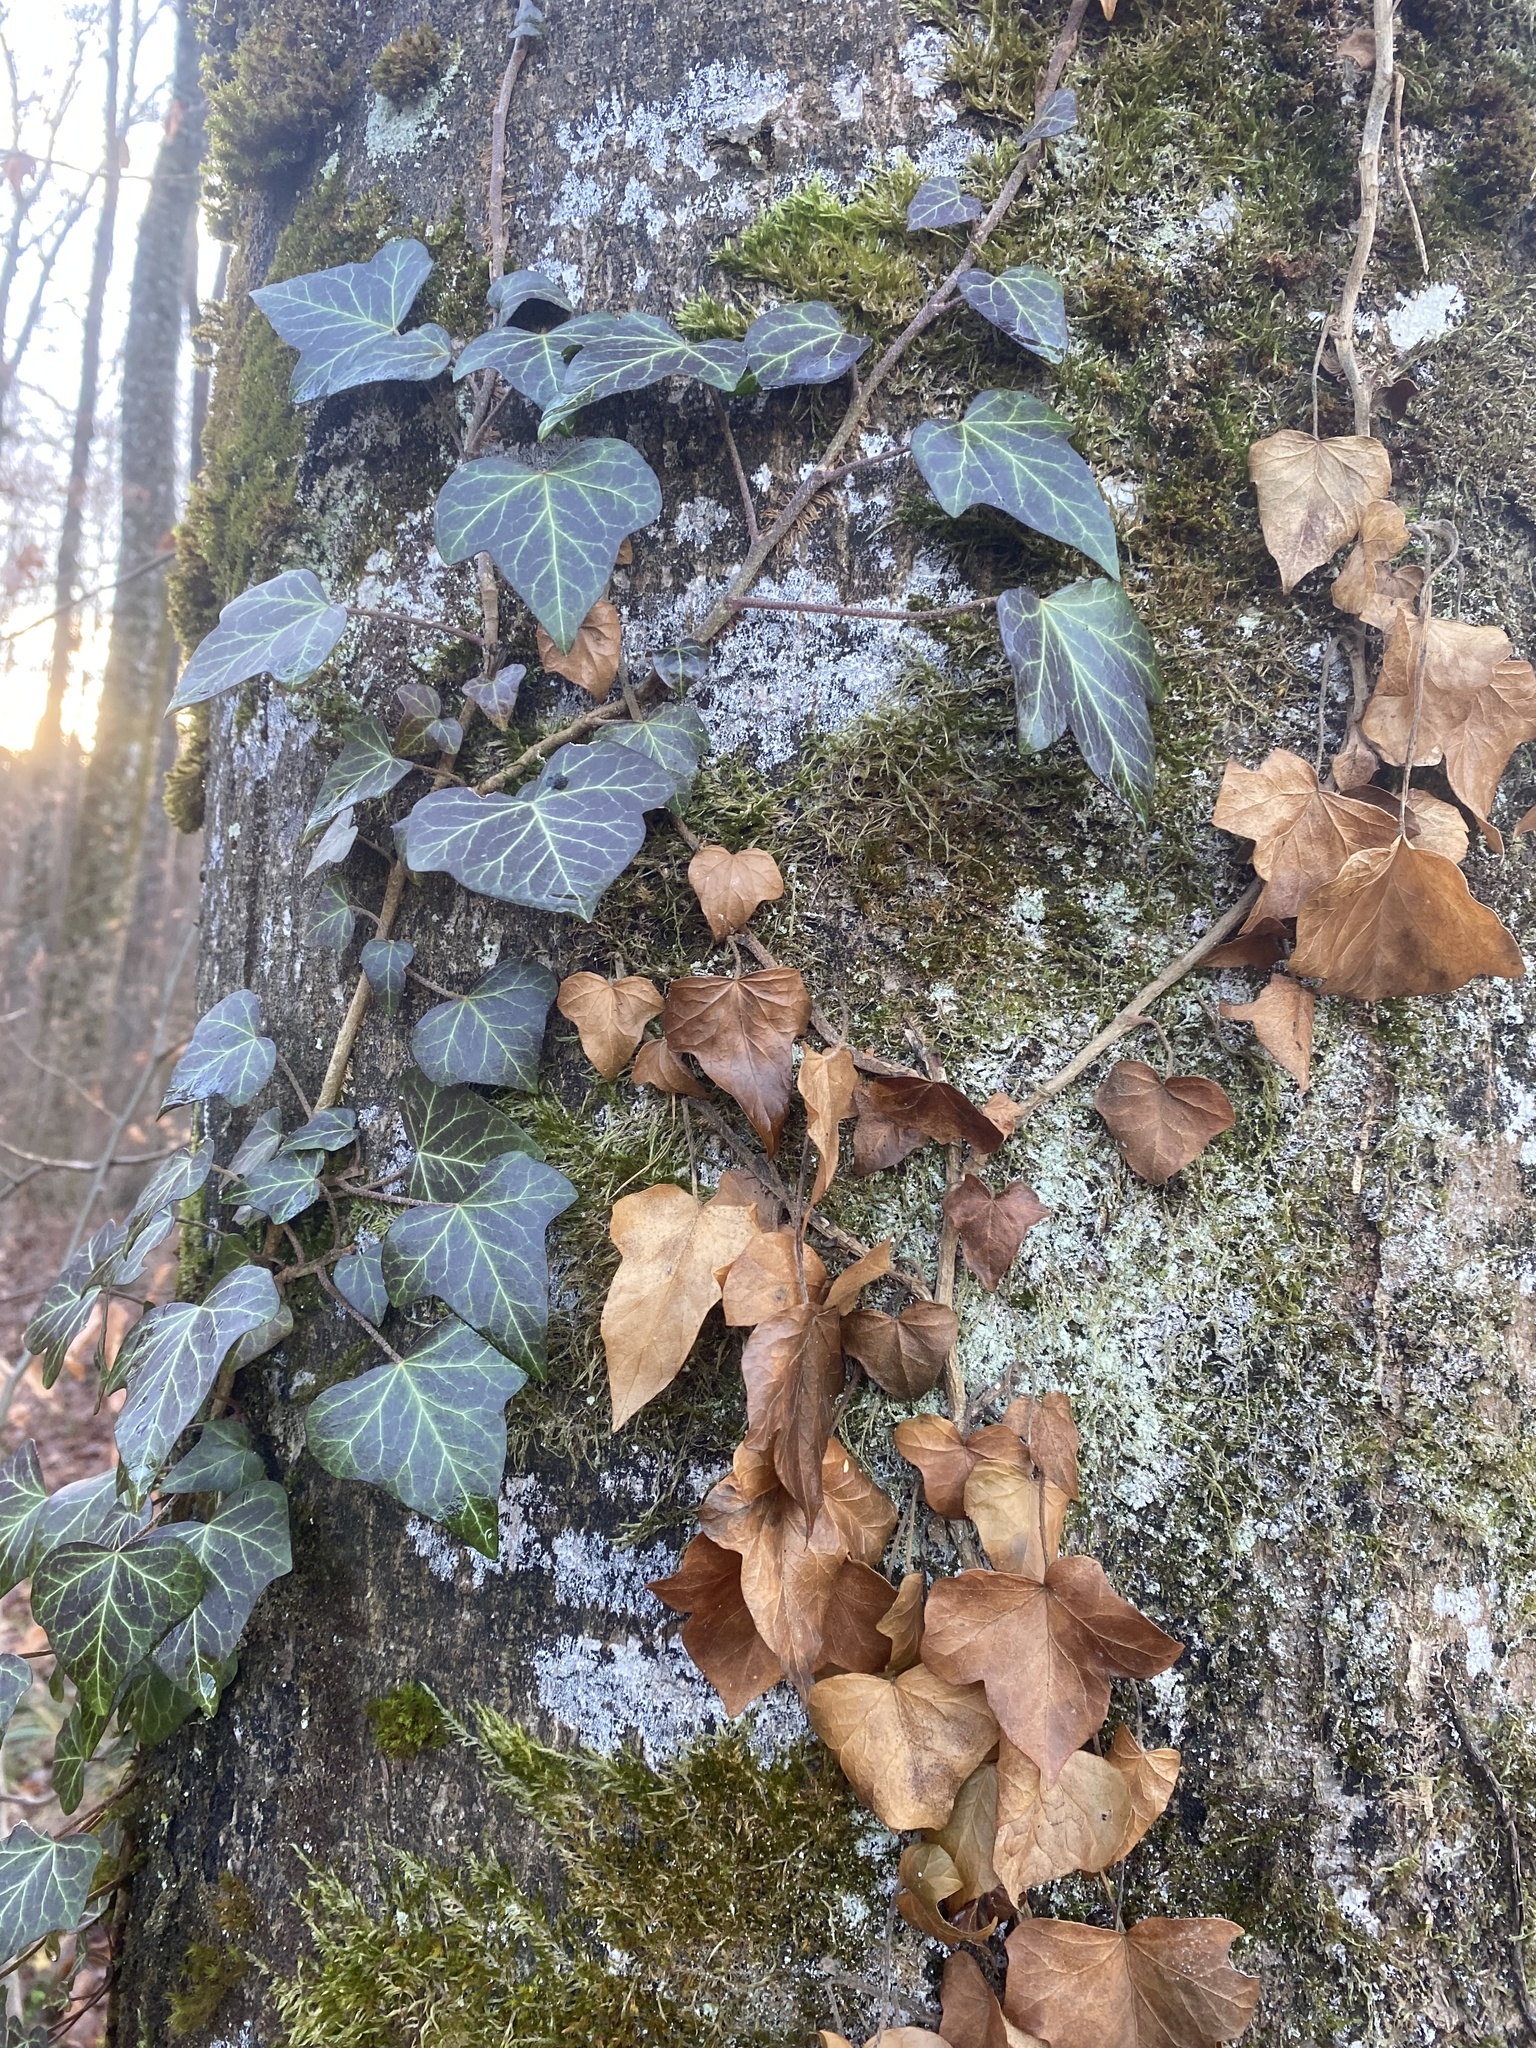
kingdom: Plantae
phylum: Tracheophyta
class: Magnoliopsida
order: Apiales
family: Araliaceae
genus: Hedera
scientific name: Hedera helix
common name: Ivy
